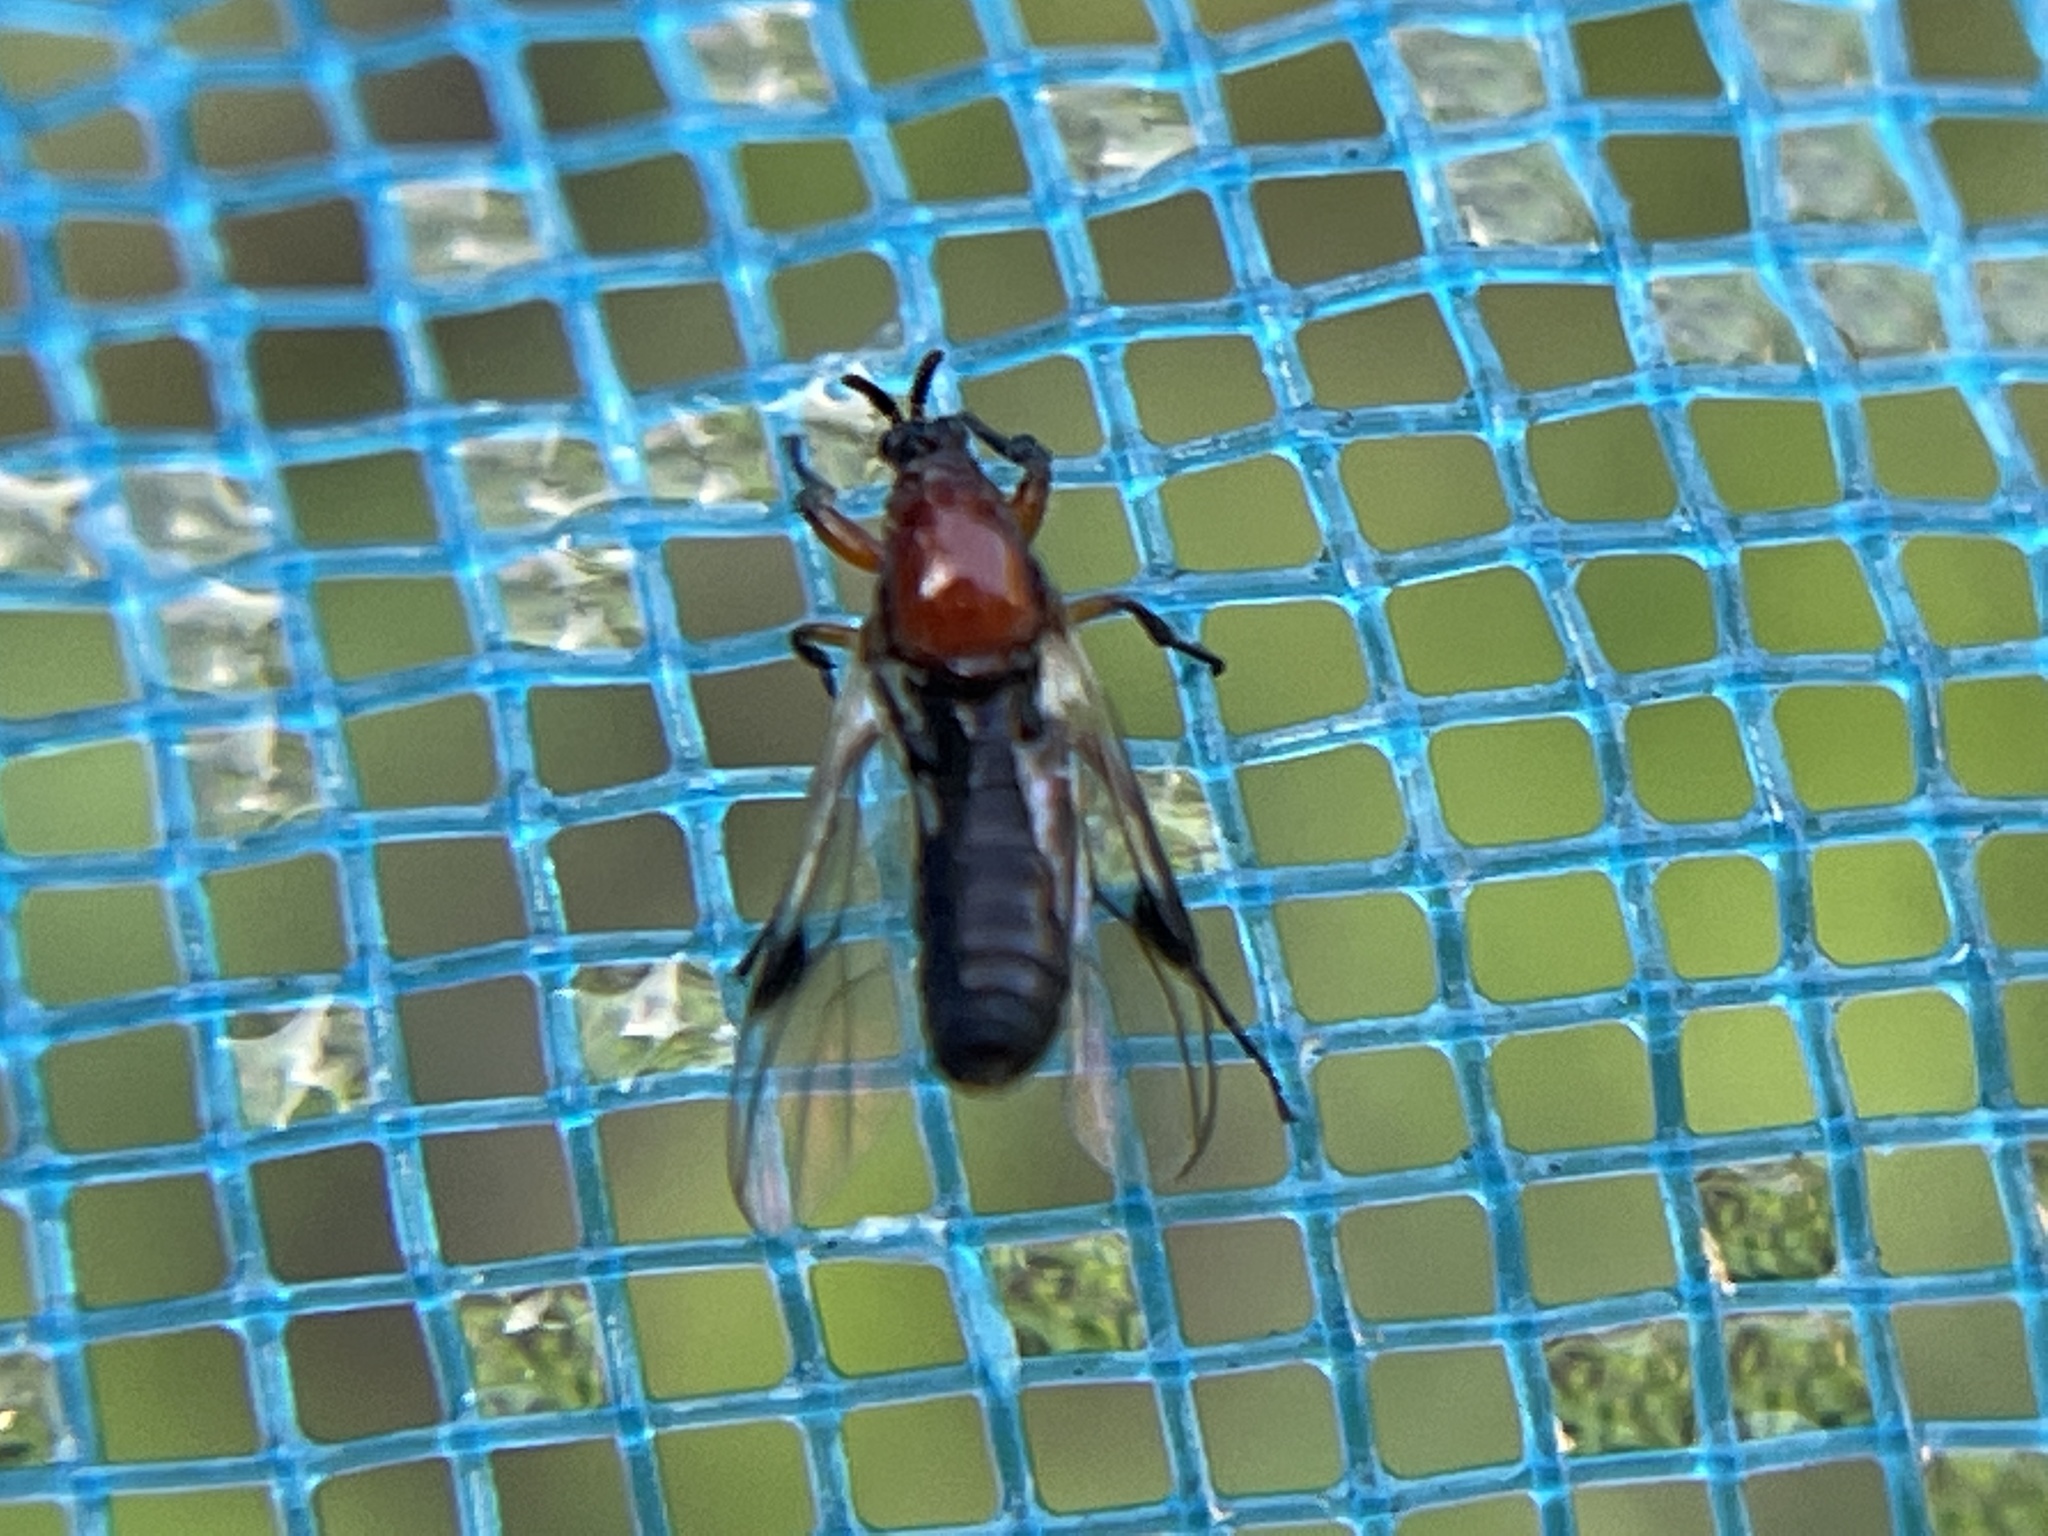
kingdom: Animalia
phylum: Arthropoda
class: Insecta
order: Diptera
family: Bibionidae
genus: Dilophus
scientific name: Dilophus occipitalis
